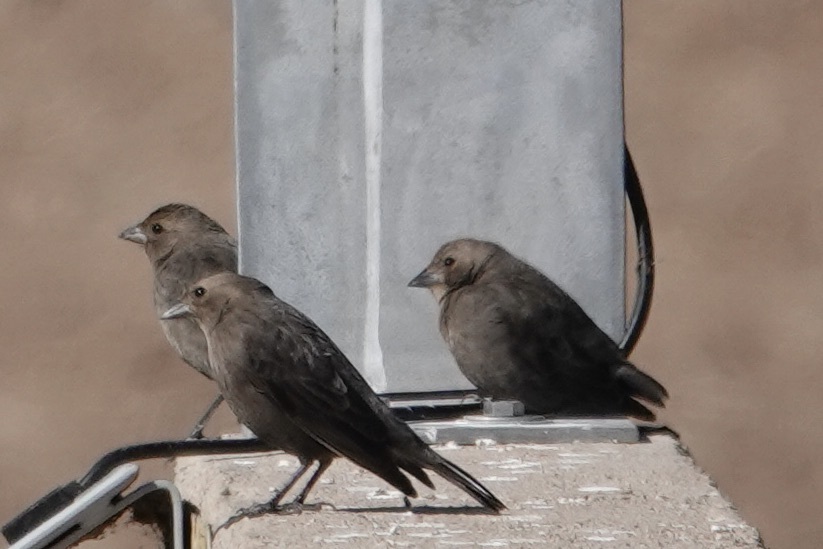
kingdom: Animalia
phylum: Chordata
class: Aves
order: Passeriformes
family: Icteridae
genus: Molothrus
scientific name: Molothrus ater
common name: Brown-headed cowbird
